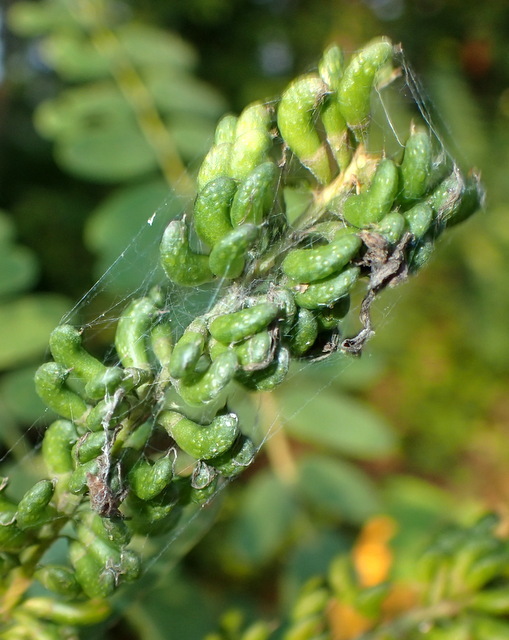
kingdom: Plantae
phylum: Tracheophyta
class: Magnoliopsida
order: Fabales
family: Fabaceae
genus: Amorpha
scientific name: Amorpha fruticosa
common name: False indigo
